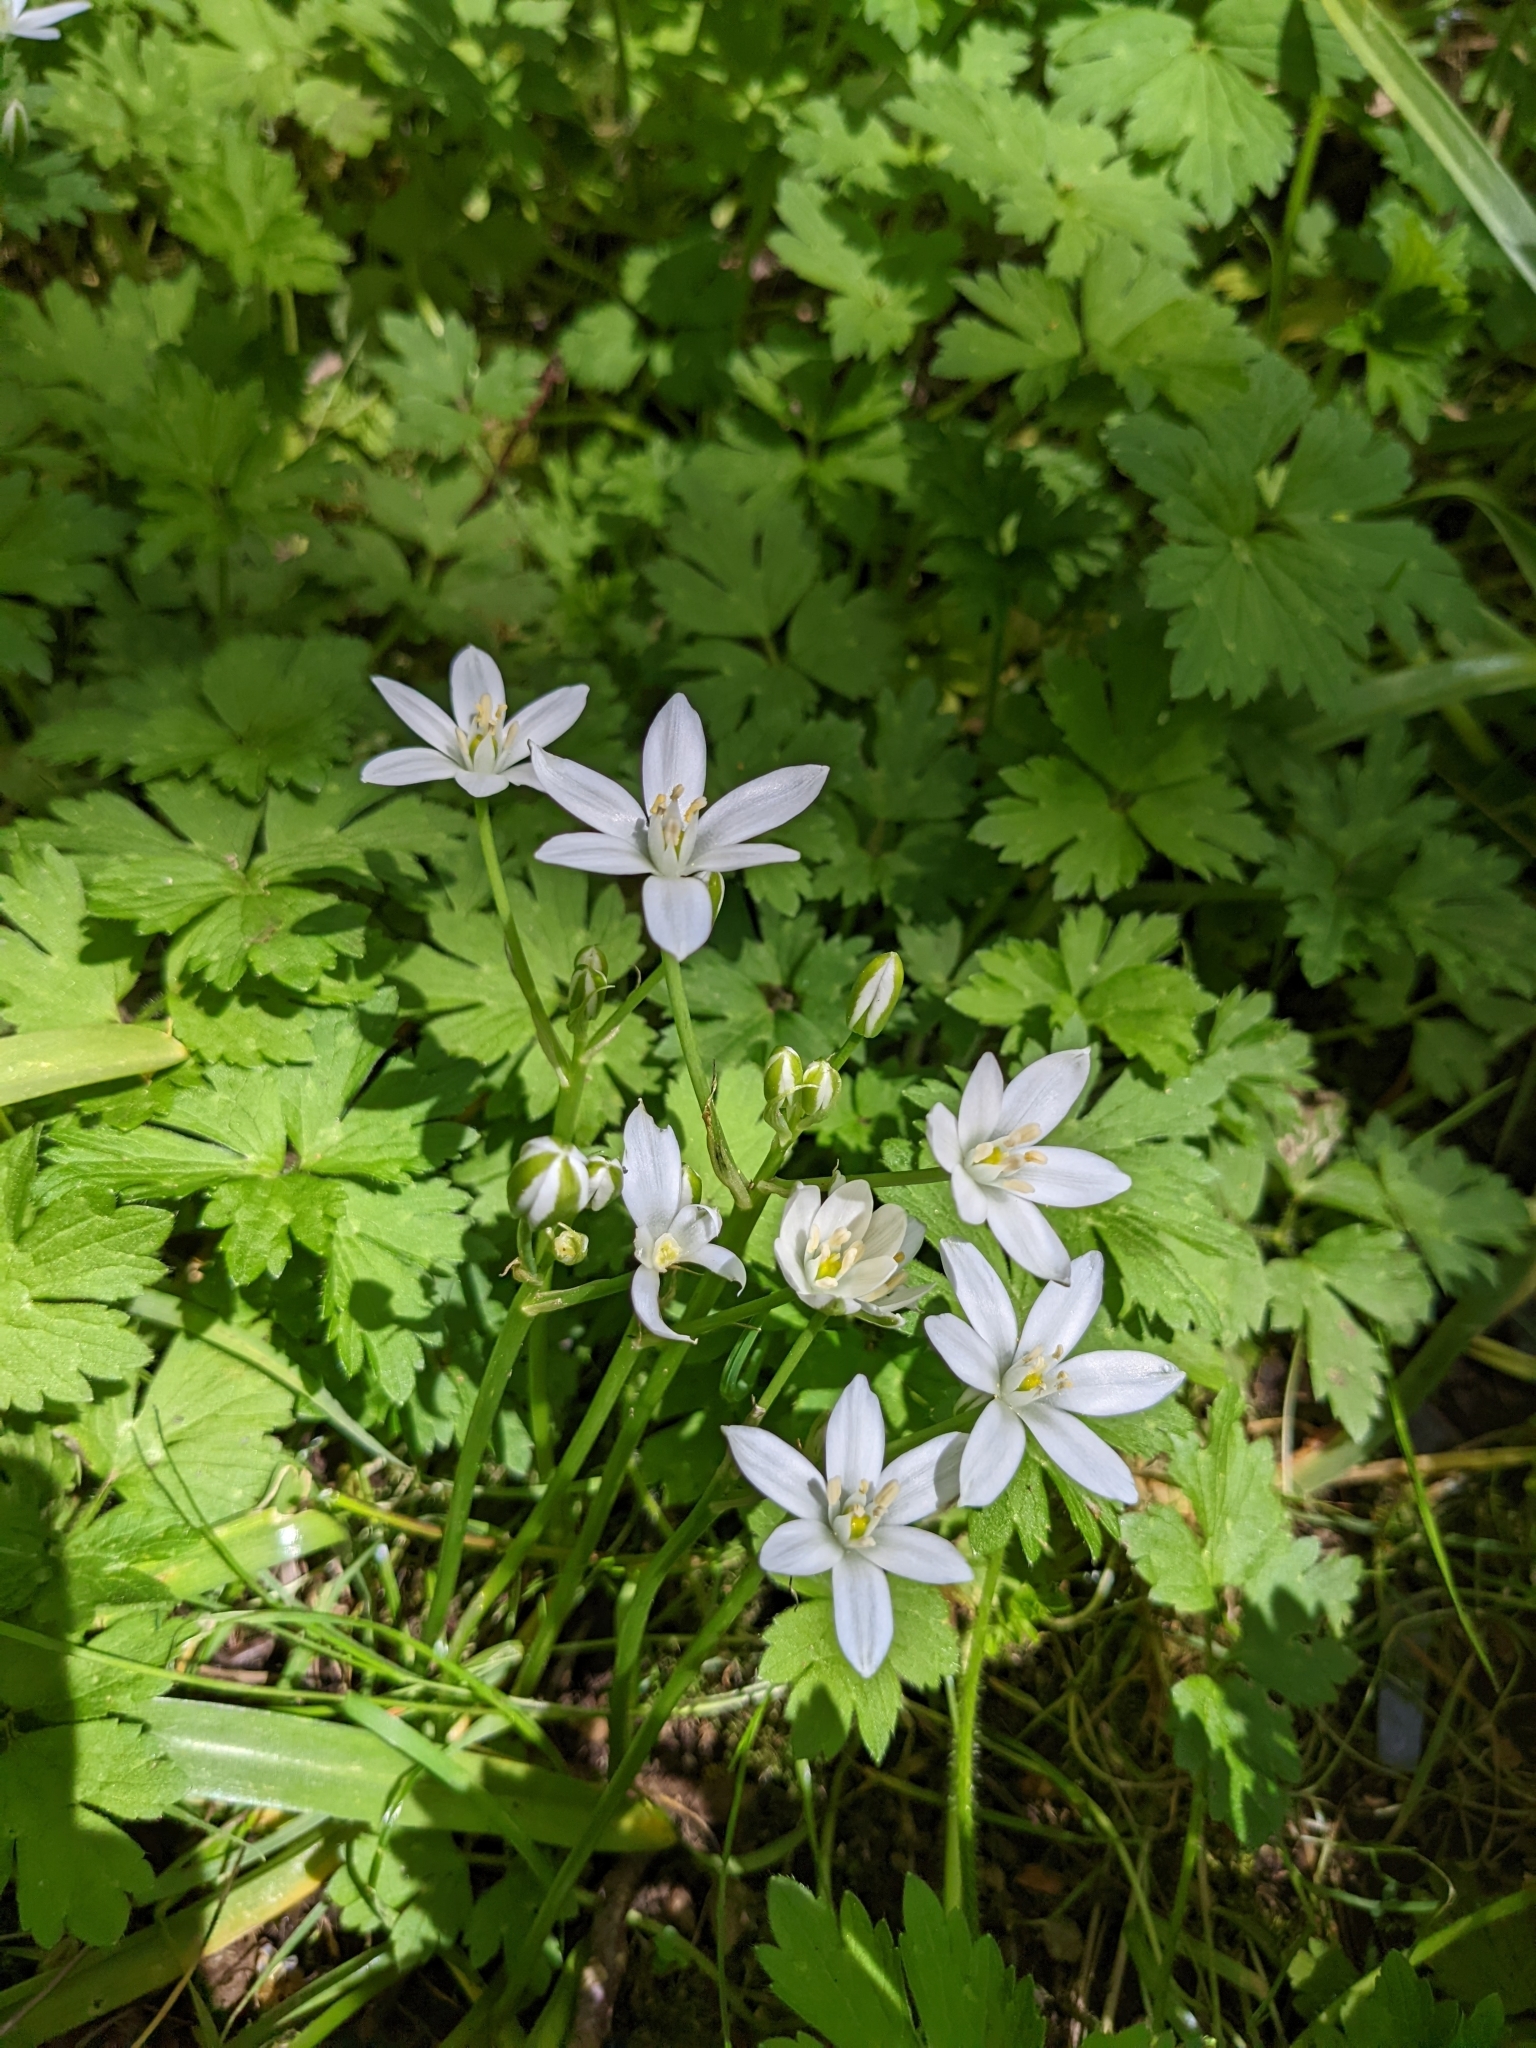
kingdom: Plantae
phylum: Tracheophyta
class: Liliopsida
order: Asparagales
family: Asparagaceae
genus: Ornithogalum
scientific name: Ornithogalum umbellatum
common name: Garden star-of-bethlehem
